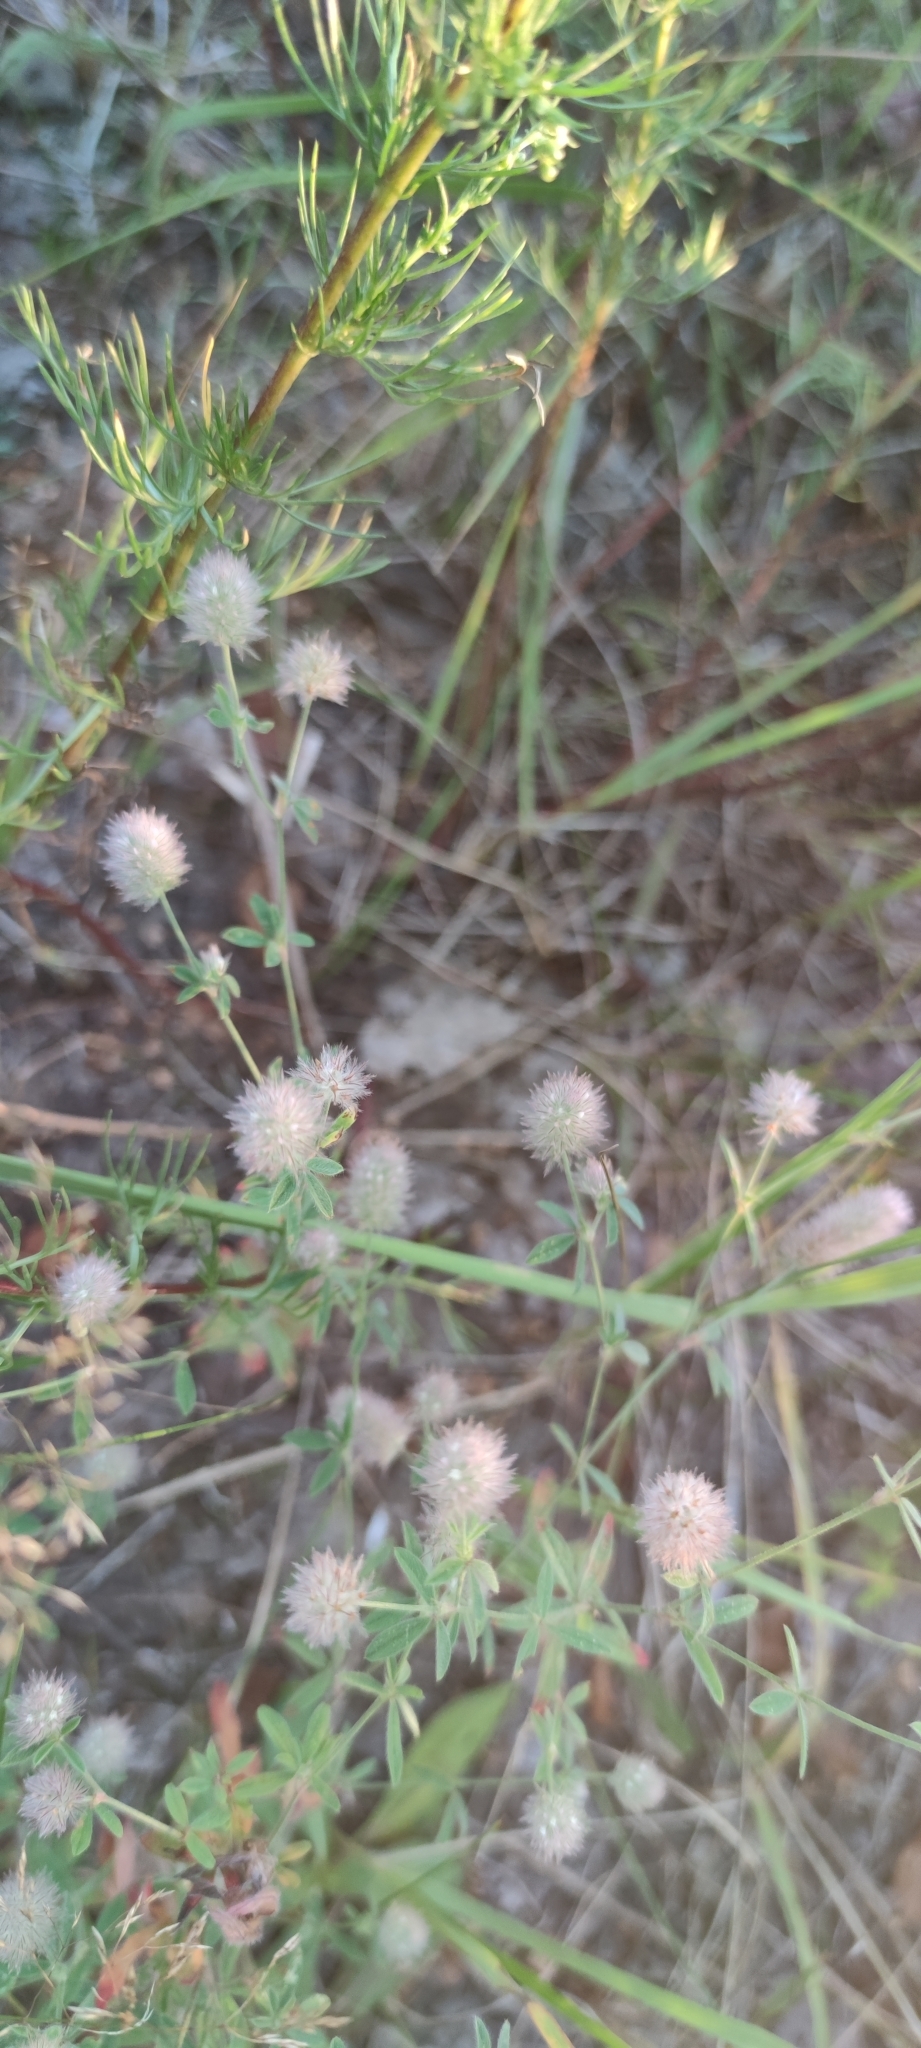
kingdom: Plantae
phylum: Tracheophyta
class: Magnoliopsida
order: Fabales
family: Fabaceae
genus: Trifolium
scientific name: Trifolium arvense
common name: Hare's-foot clover
